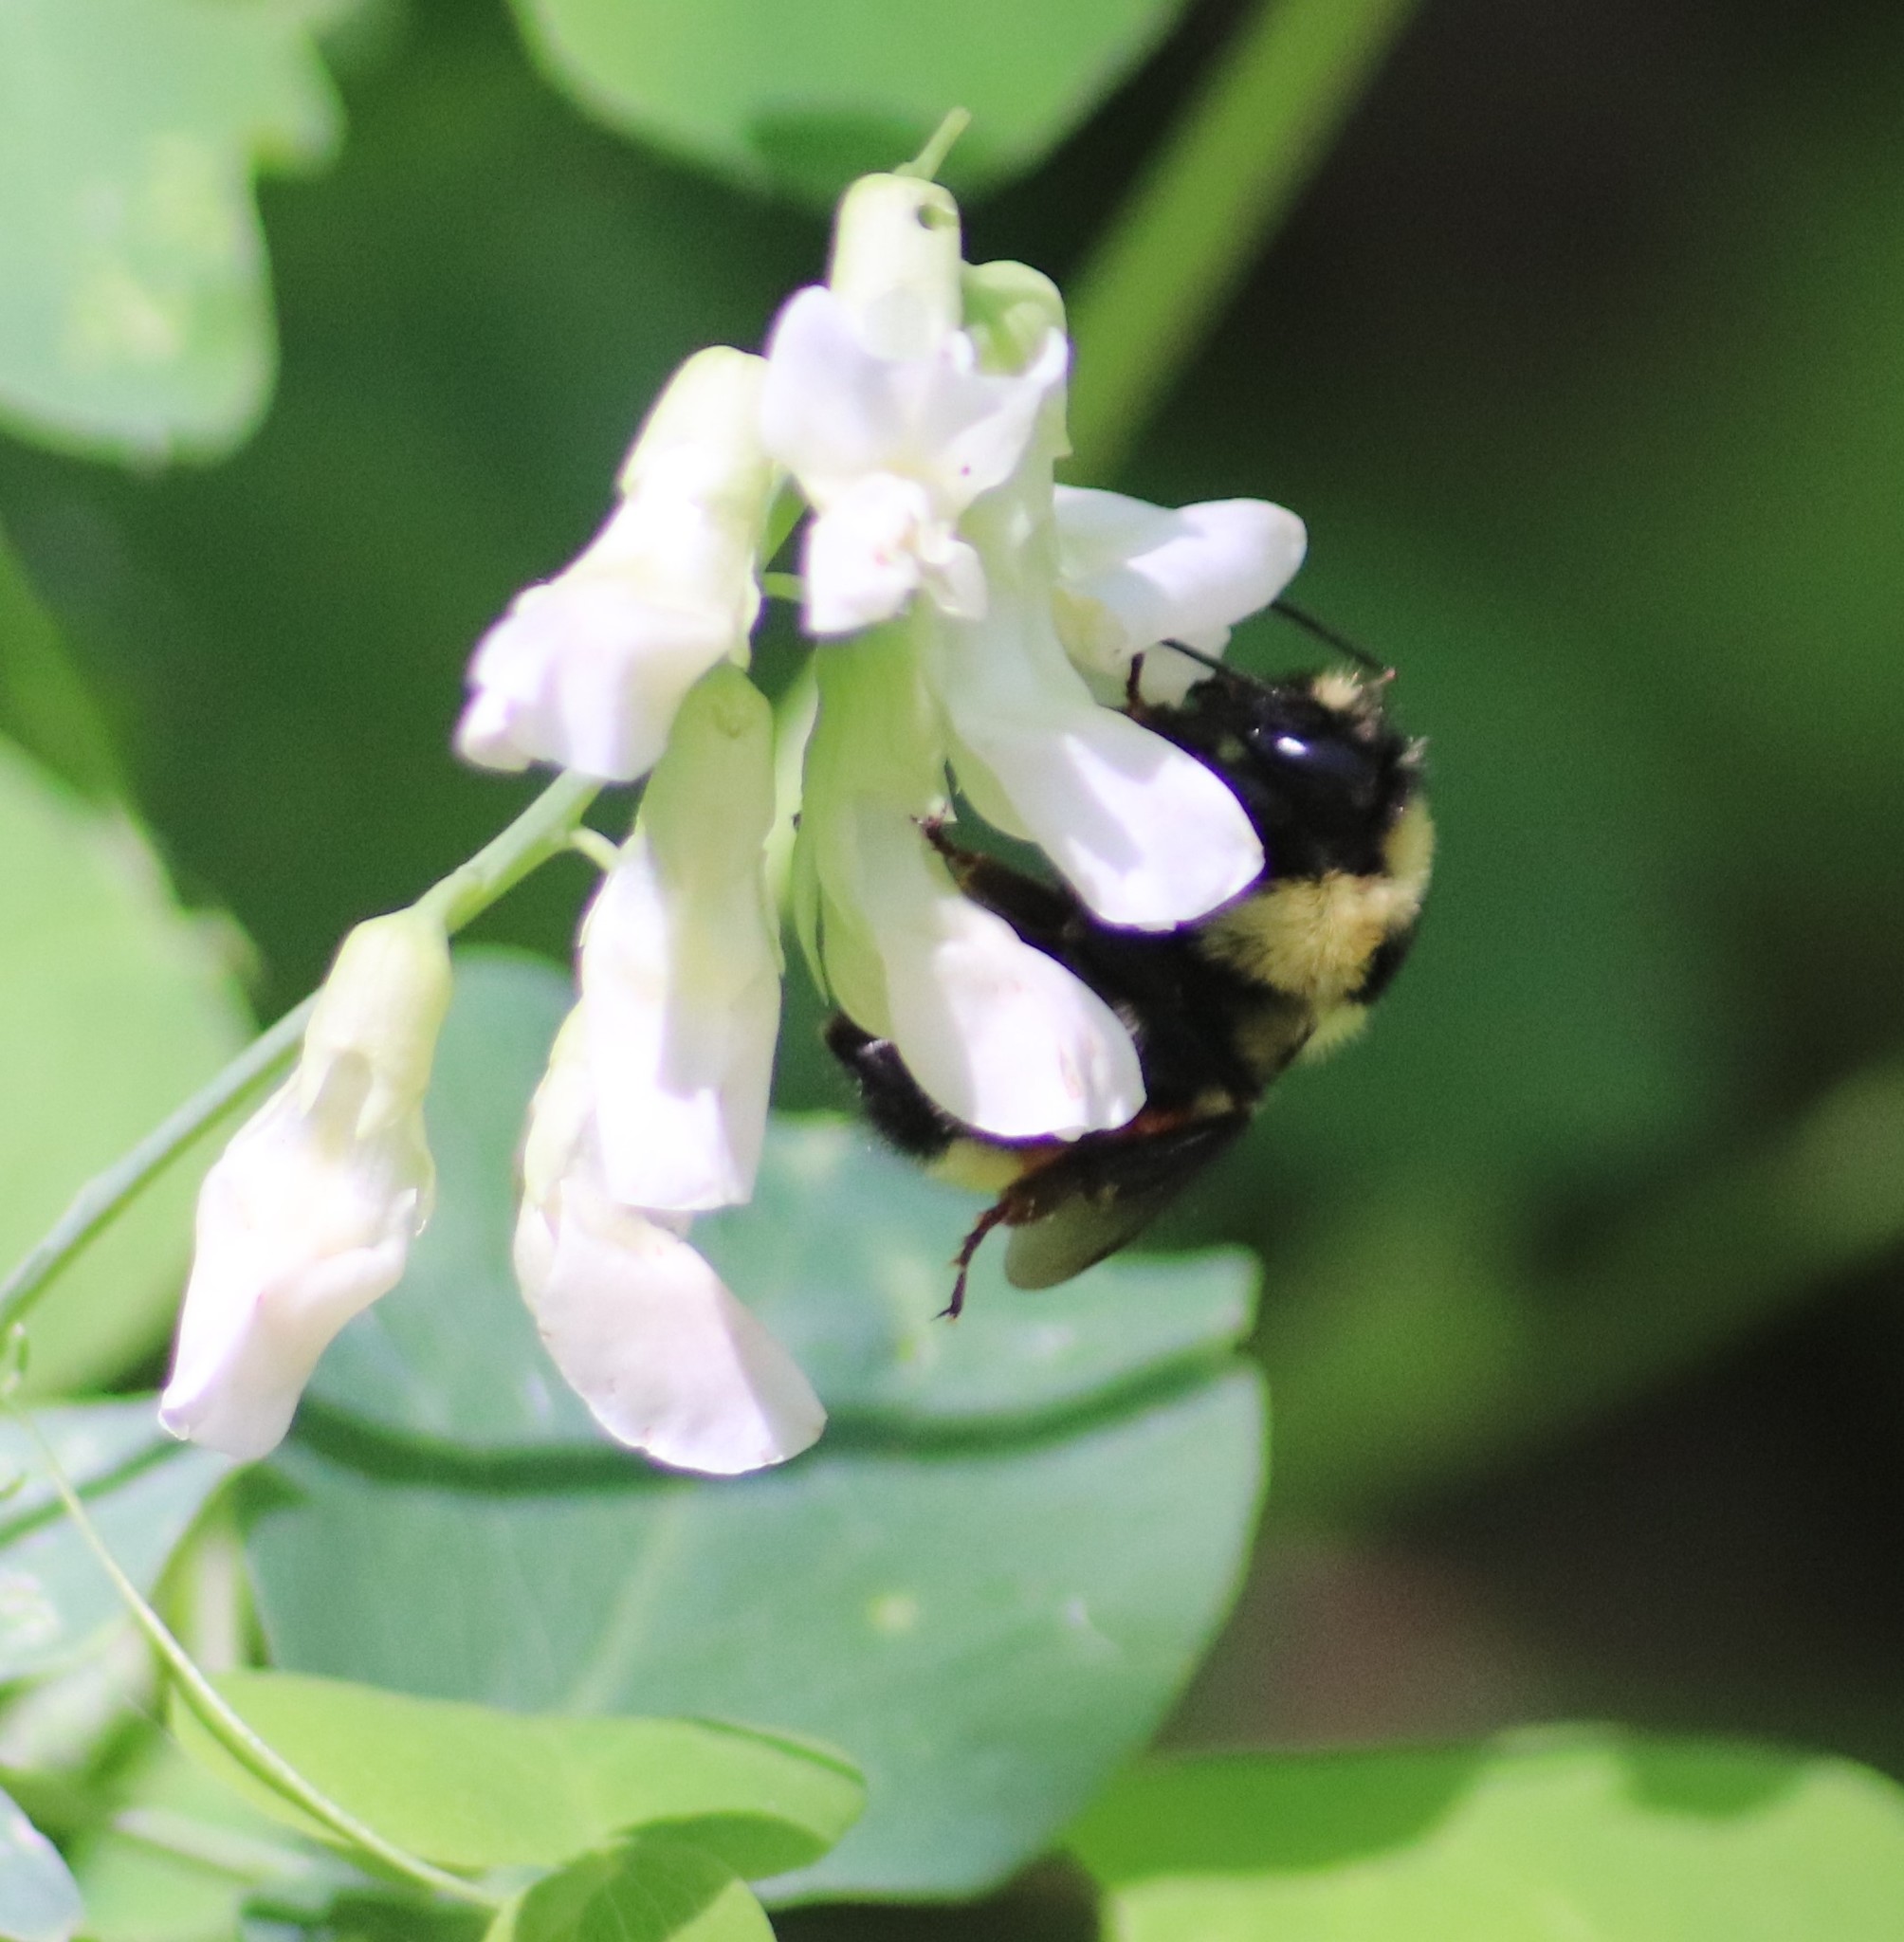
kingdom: Animalia
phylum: Arthropoda
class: Insecta
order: Hymenoptera
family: Apidae
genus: Bombus
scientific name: Bombus ternarius
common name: Tri-colored bumble bee
